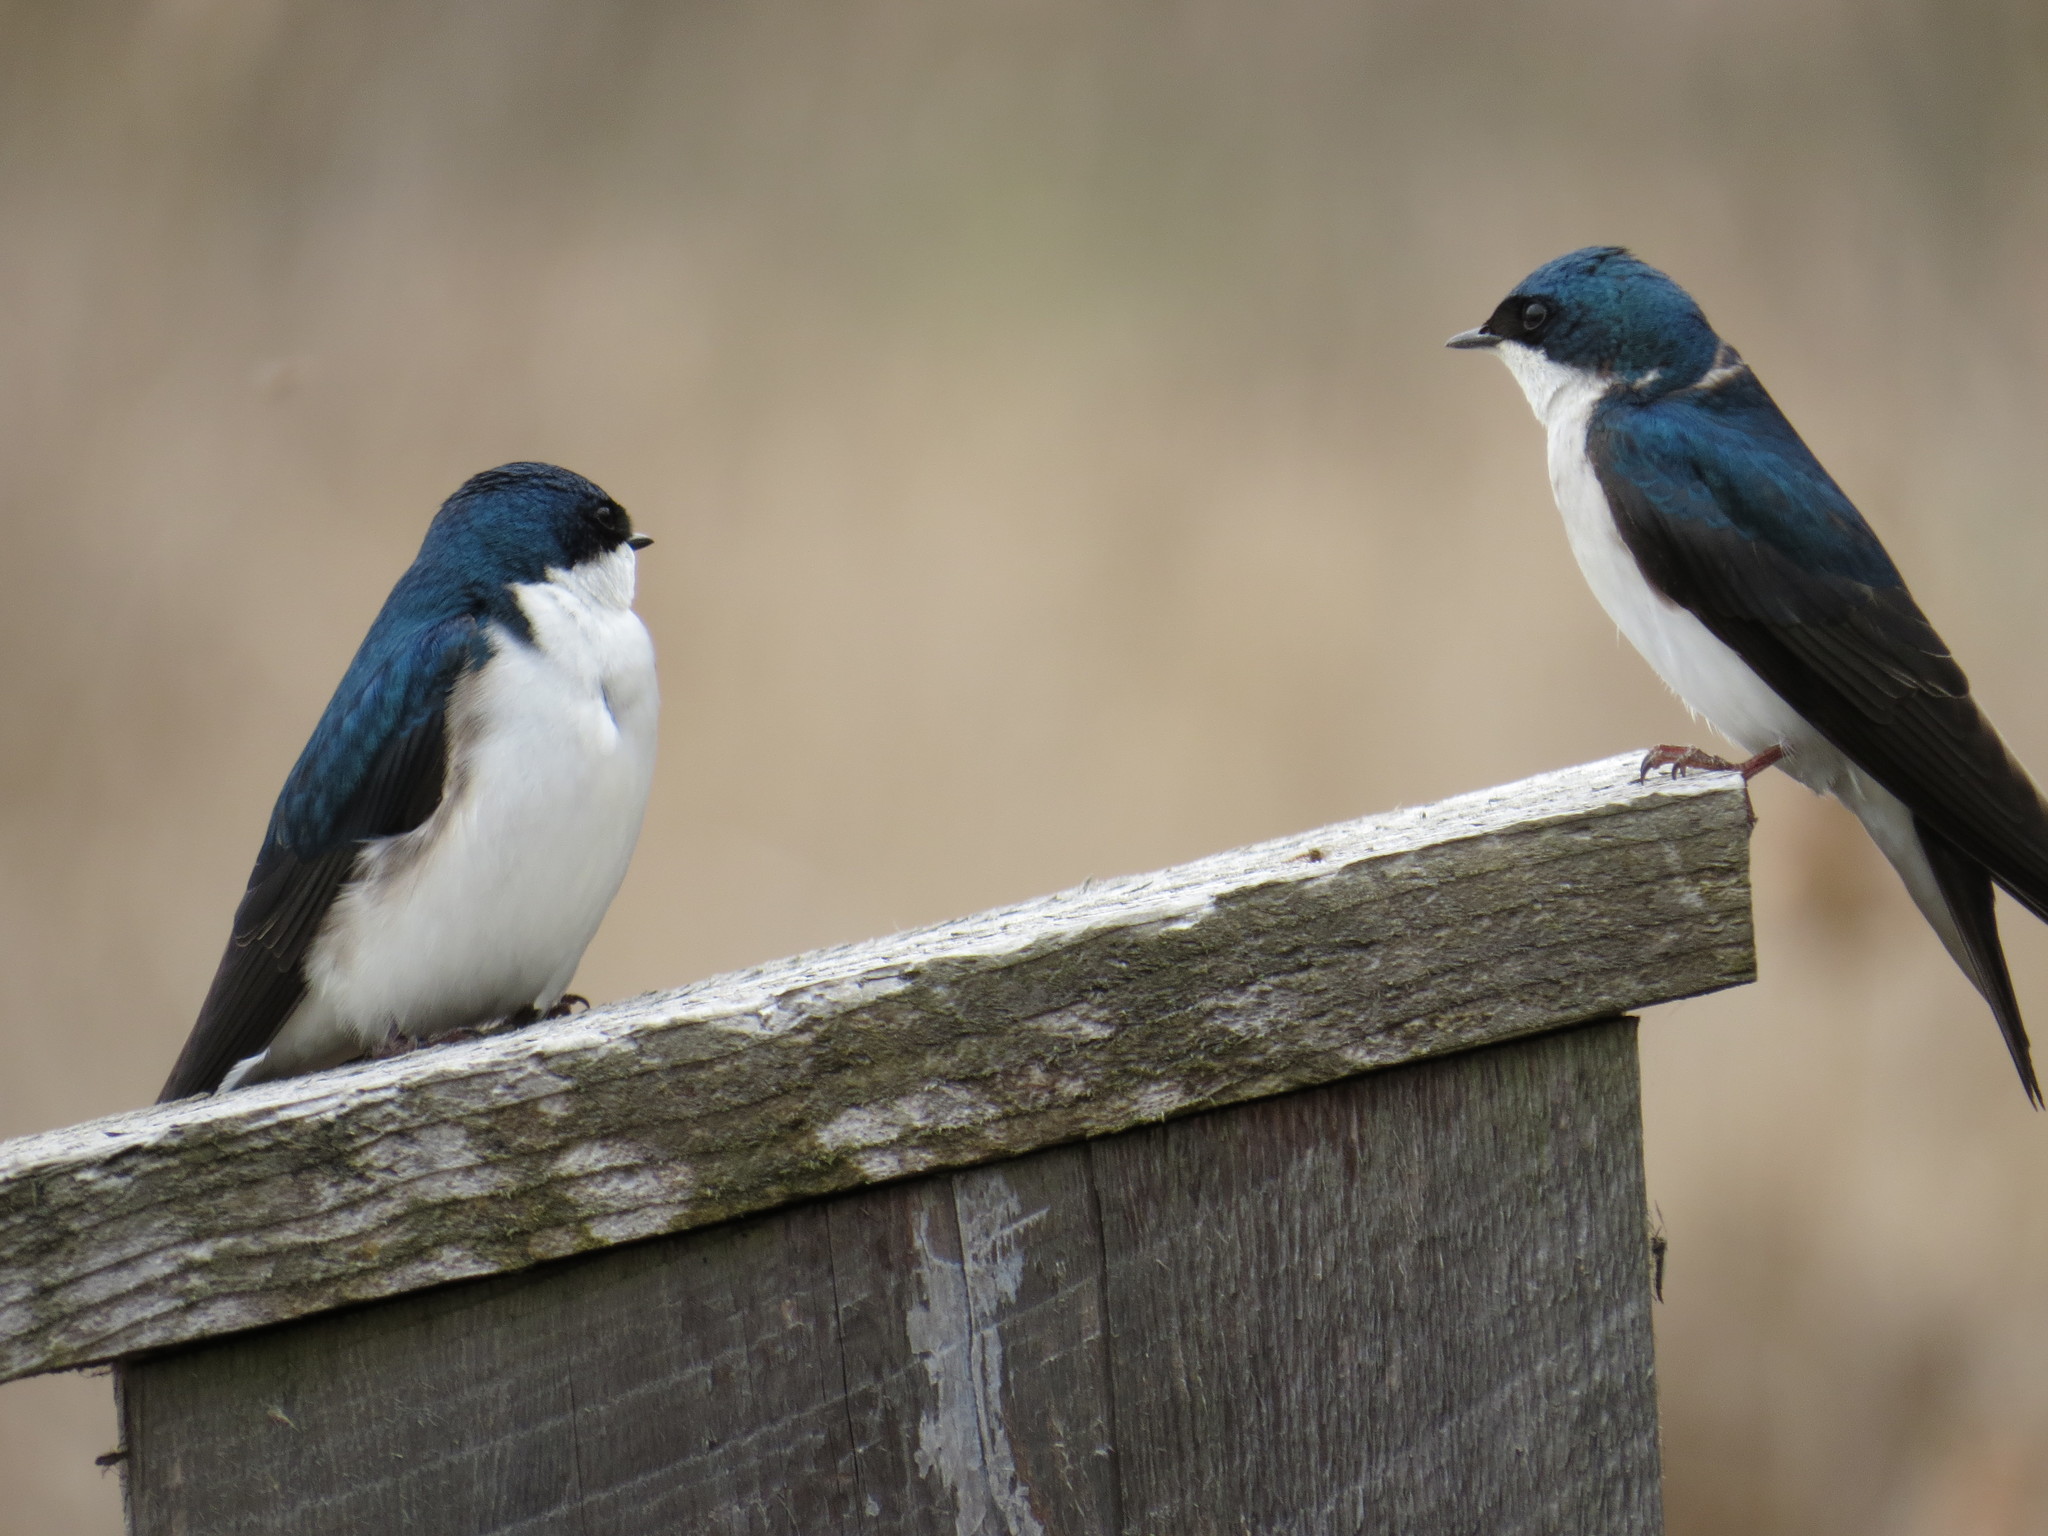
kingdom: Animalia
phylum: Chordata
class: Aves
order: Passeriformes
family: Hirundinidae
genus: Tachycineta
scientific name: Tachycineta bicolor
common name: Tree swallow
